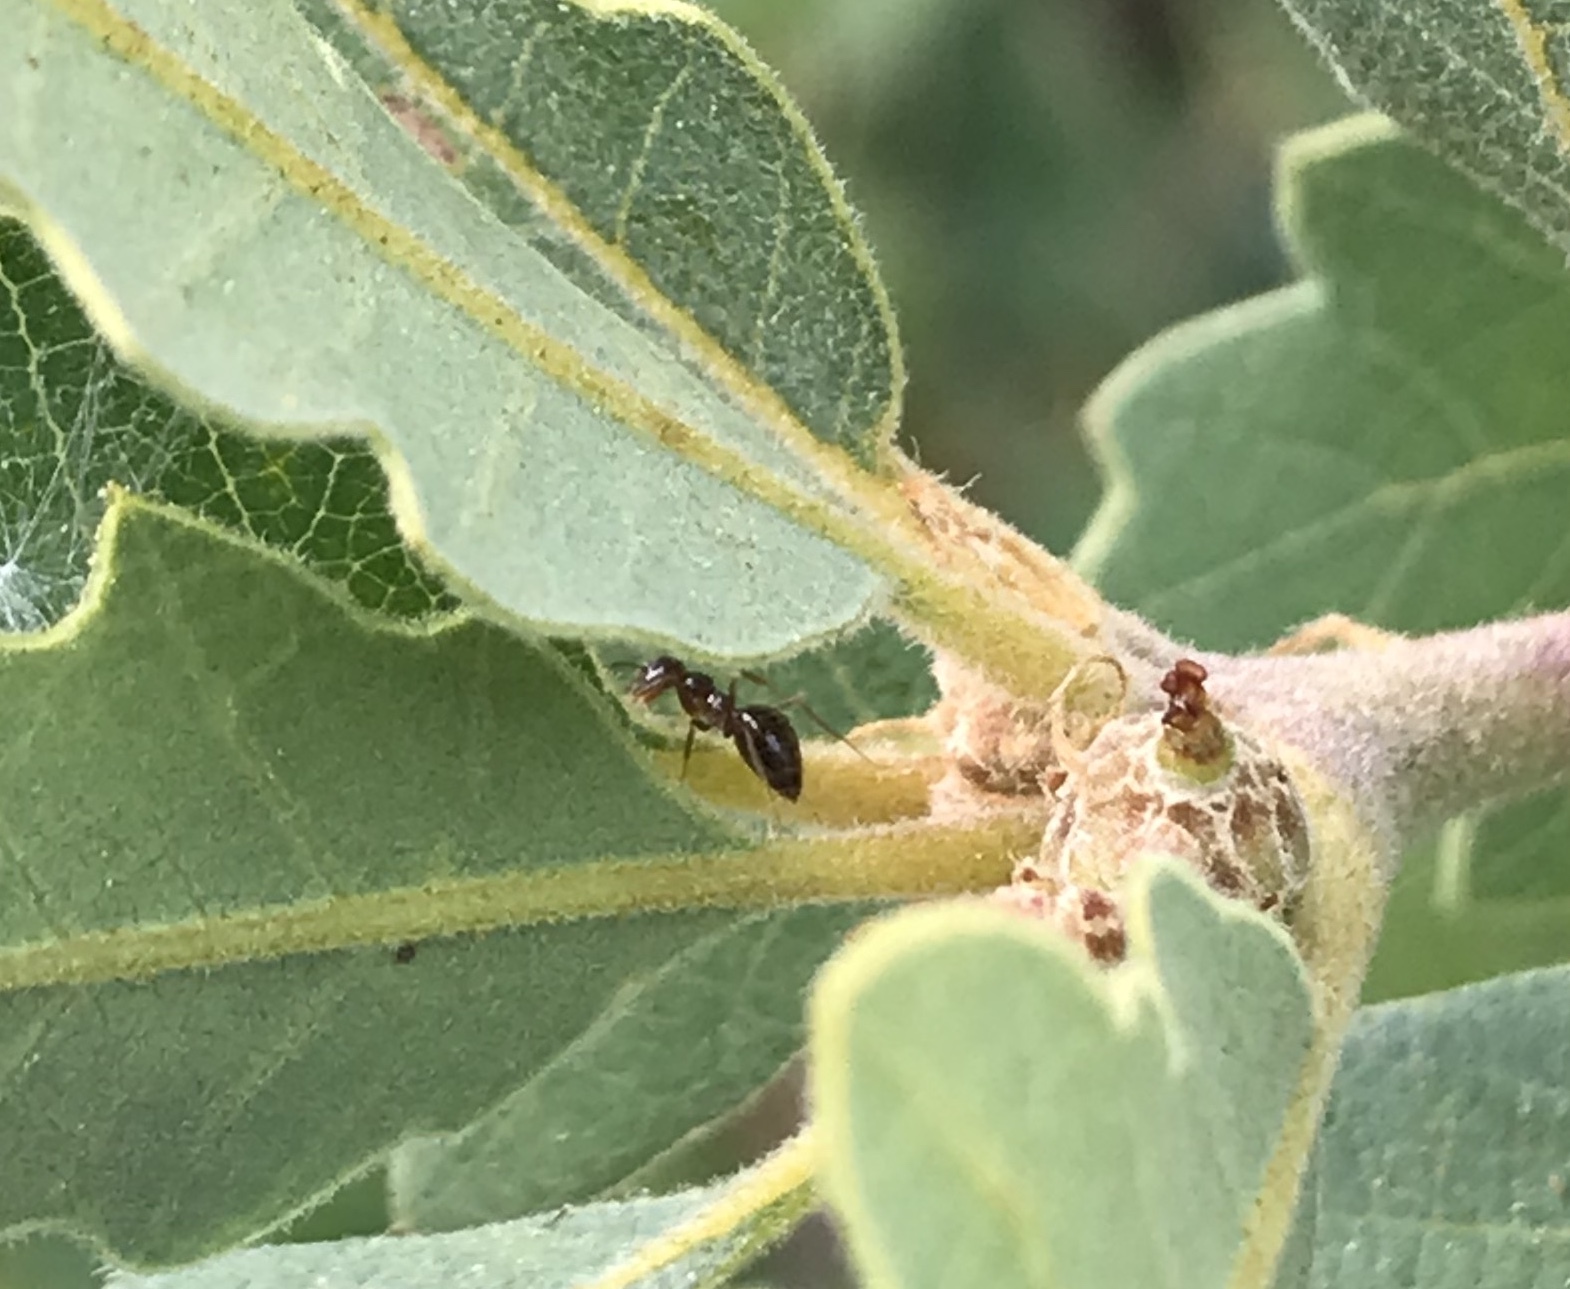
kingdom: Animalia
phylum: Arthropoda
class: Insecta
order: Hymenoptera
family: Formicidae
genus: Prenolepis
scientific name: Prenolepis imparis
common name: Small honey ant
